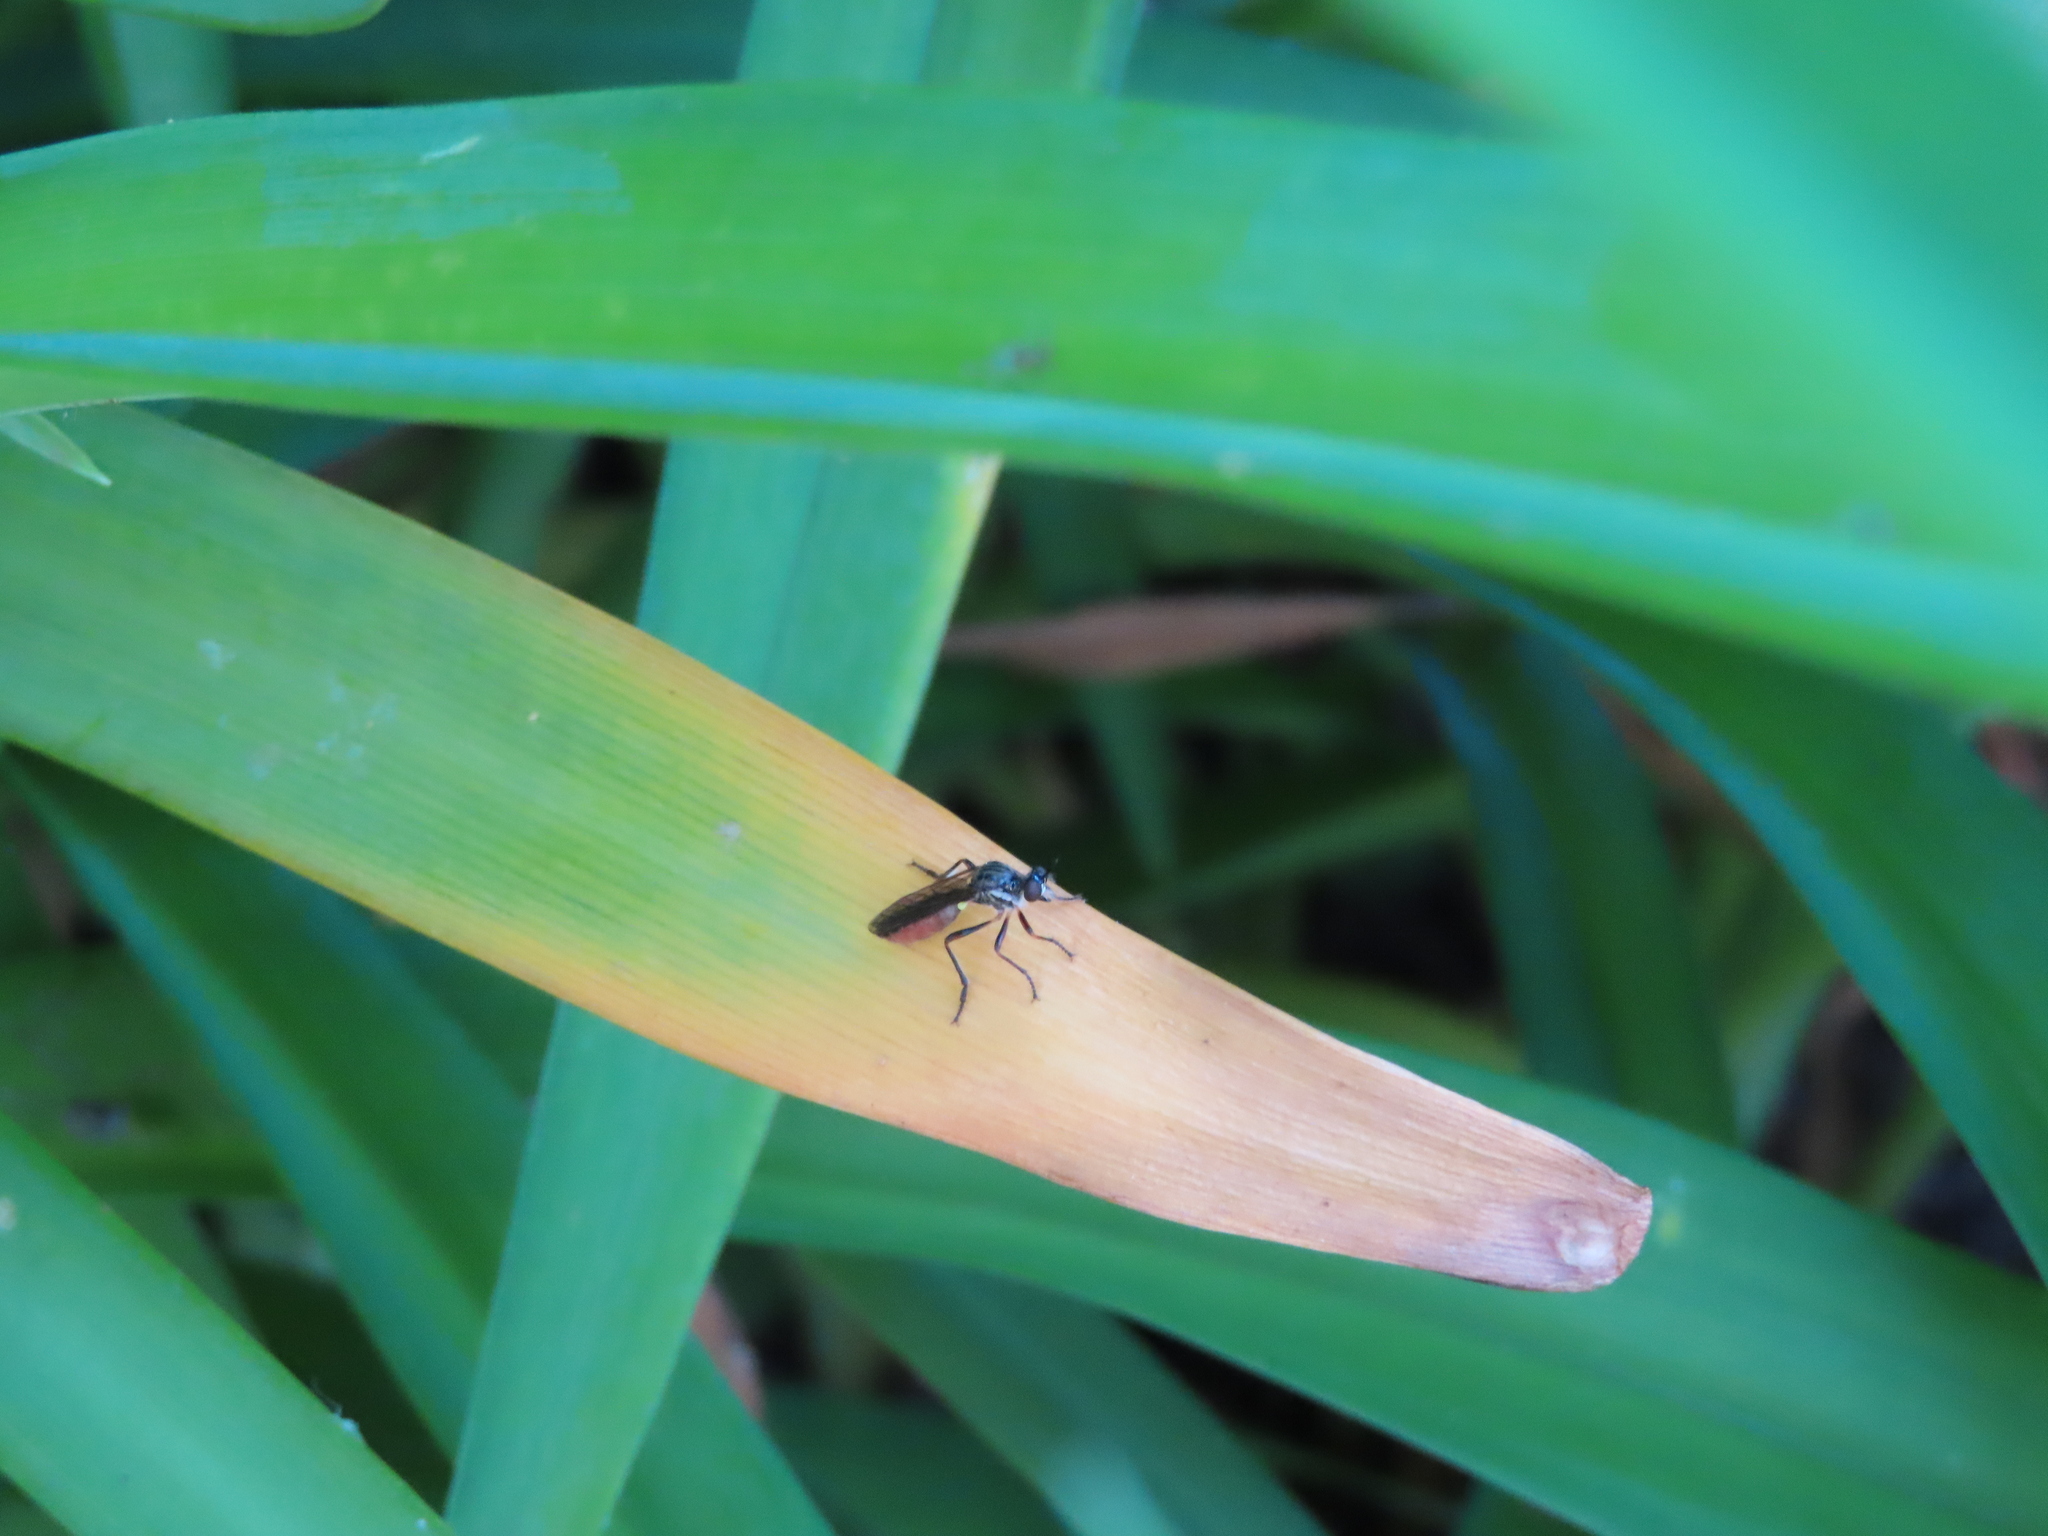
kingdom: Animalia
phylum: Arthropoda
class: Insecta
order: Diptera
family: Asilidae
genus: Dioctria
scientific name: Dioctria hyalipennis
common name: Stripe-legged robberfly
